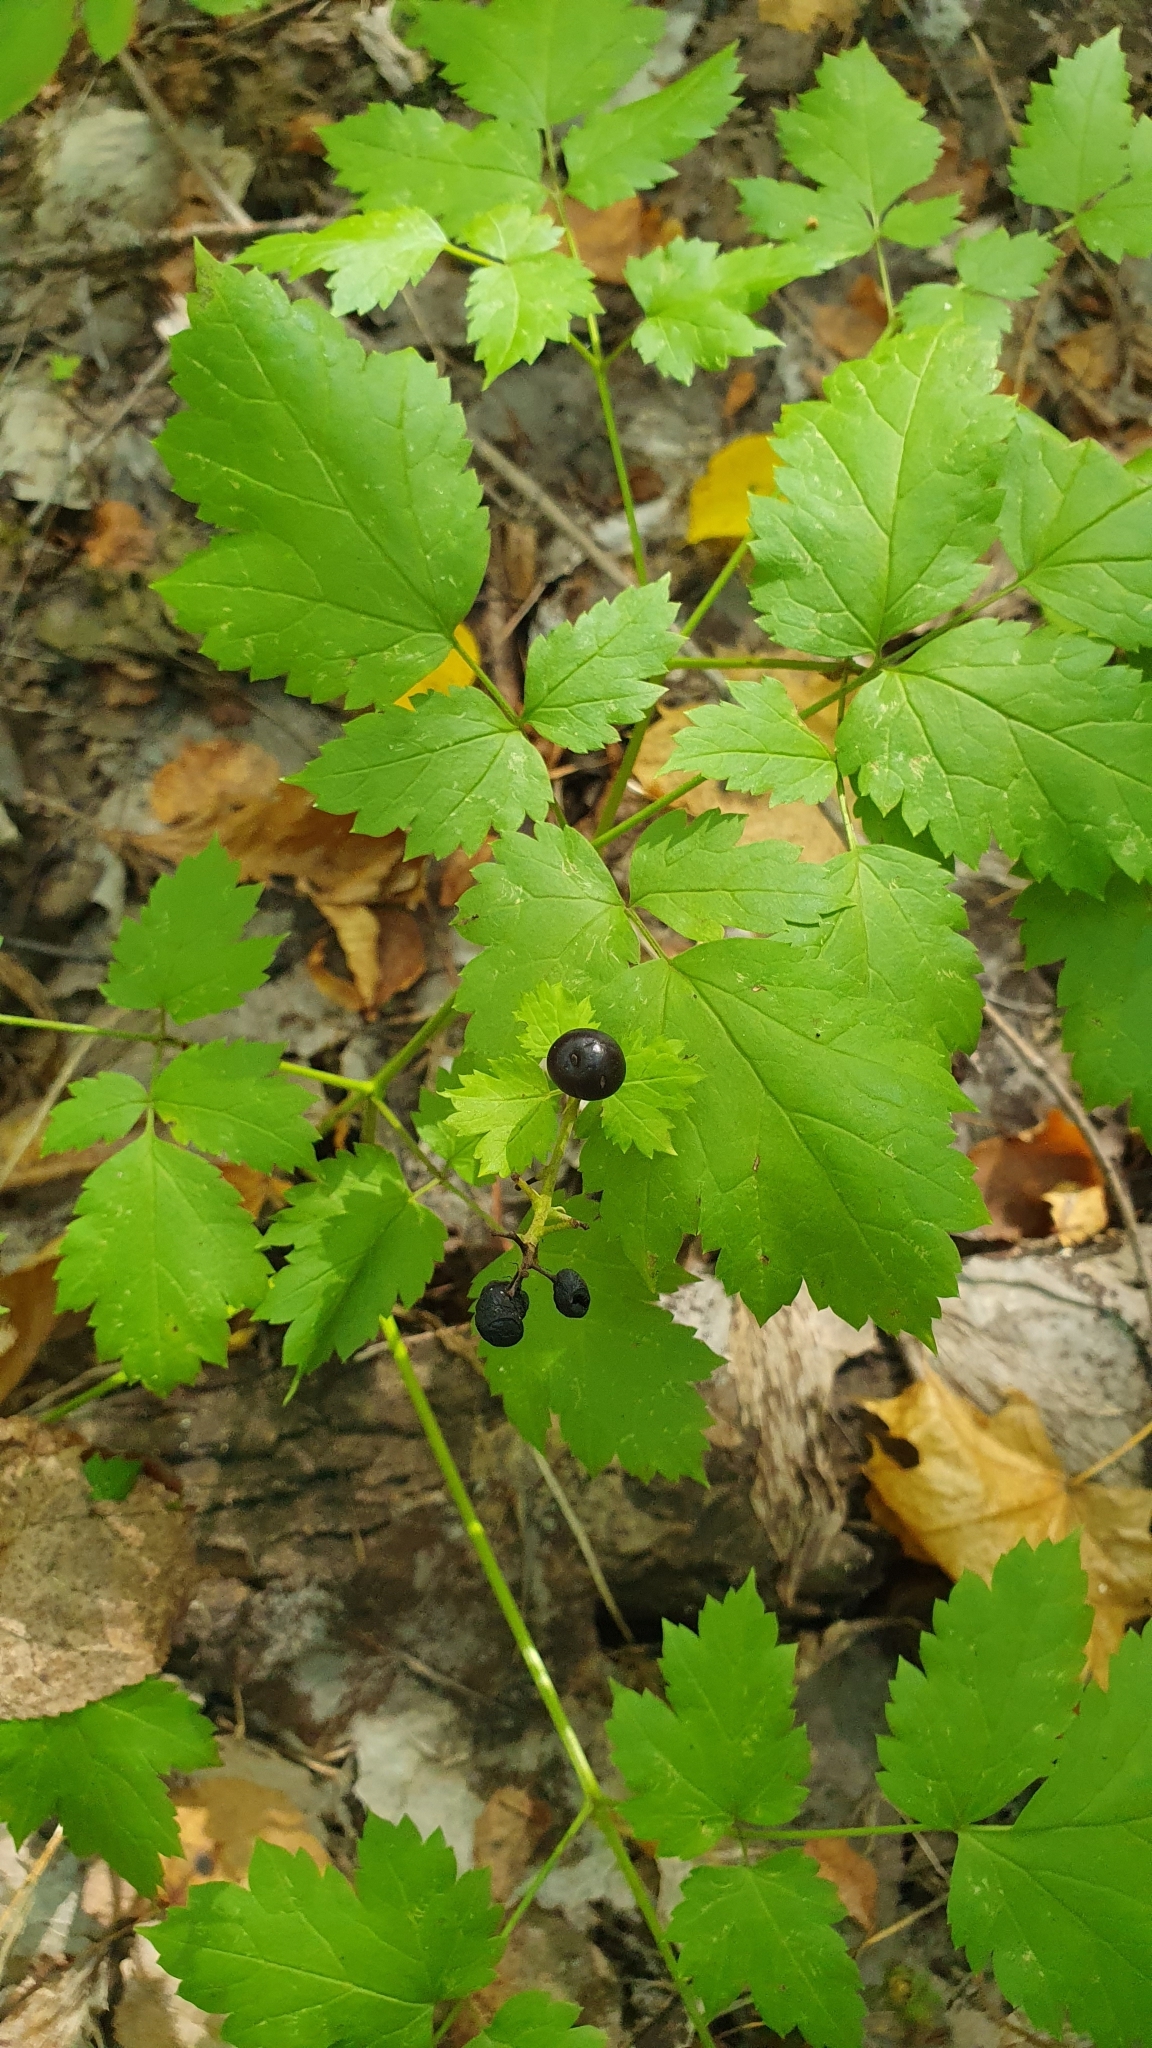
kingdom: Plantae
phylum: Tracheophyta
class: Magnoliopsida
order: Ranunculales
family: Ranunculaceae
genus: Actaea
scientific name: Actaea spicata
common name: Baneberry
